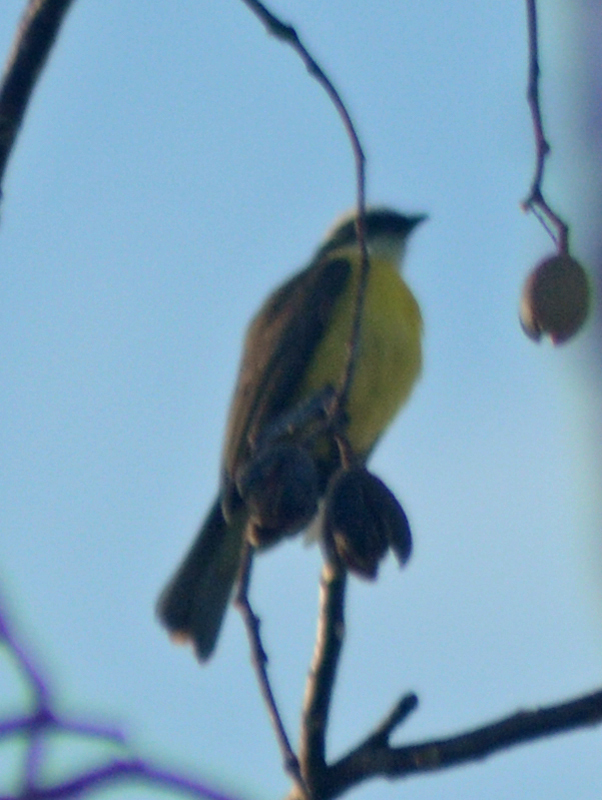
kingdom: Animalia
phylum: Chordata
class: Aves
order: Passeriformes
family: Tyrannidae
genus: Myiozetetes
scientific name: Myiozetetes similis
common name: Social flycatcher
